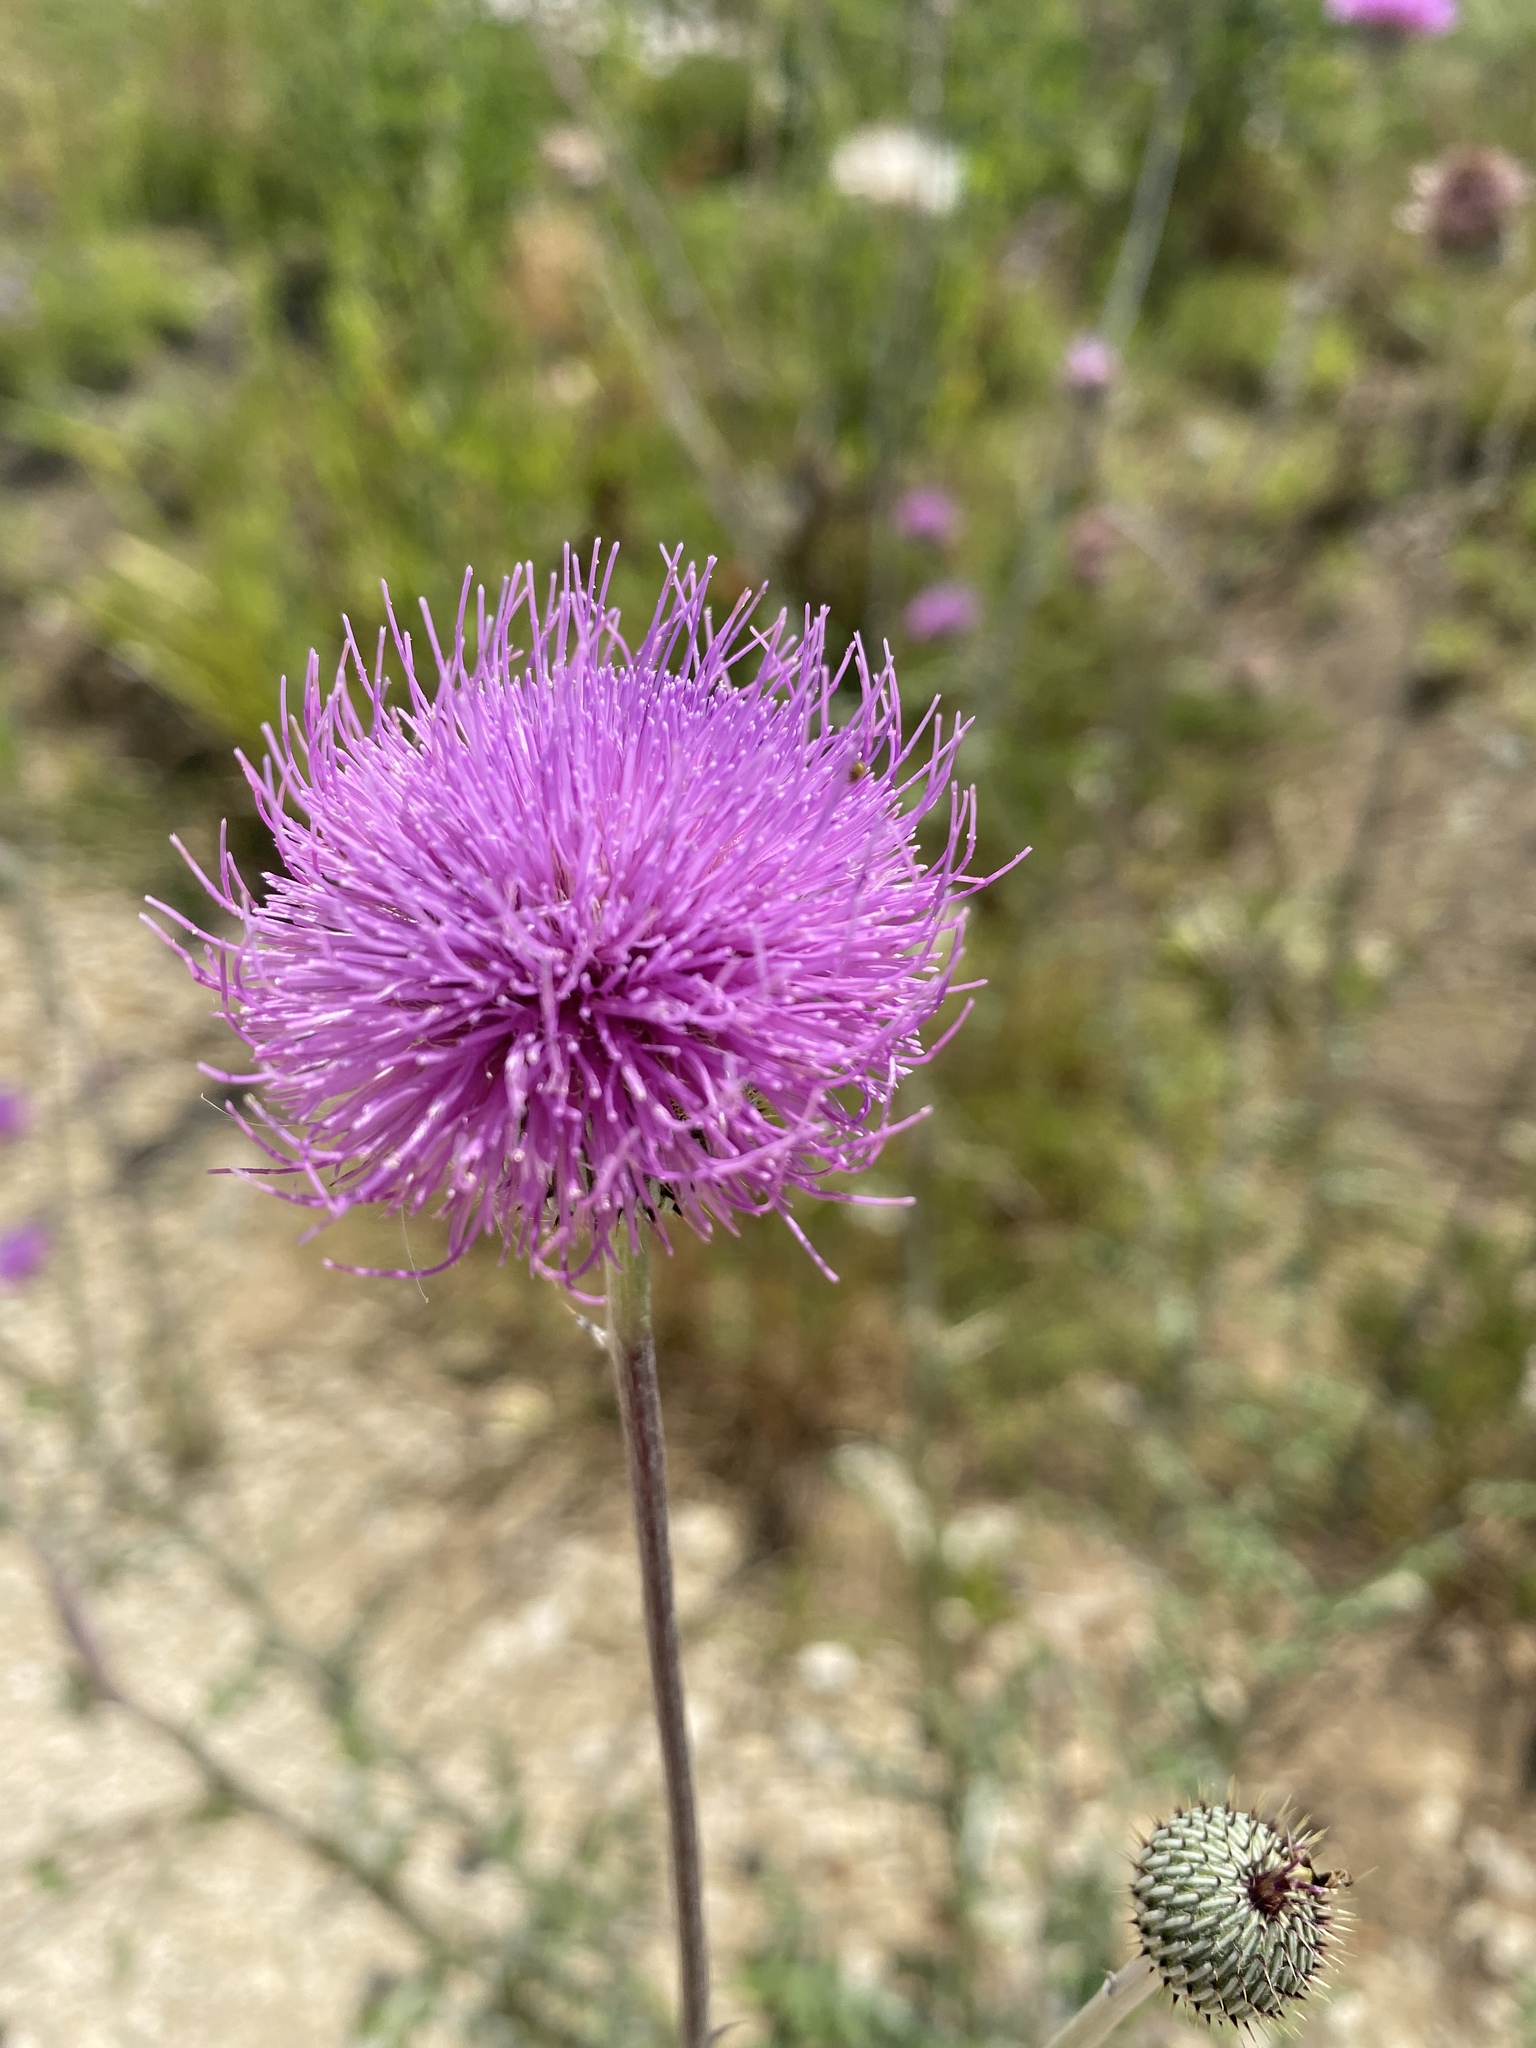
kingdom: Plantae
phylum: Tracheophyta
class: Magnoliopsida
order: Asterales
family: Asteraceae
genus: Cirsium
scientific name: Cirsium texanum
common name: Texas purple thistle
